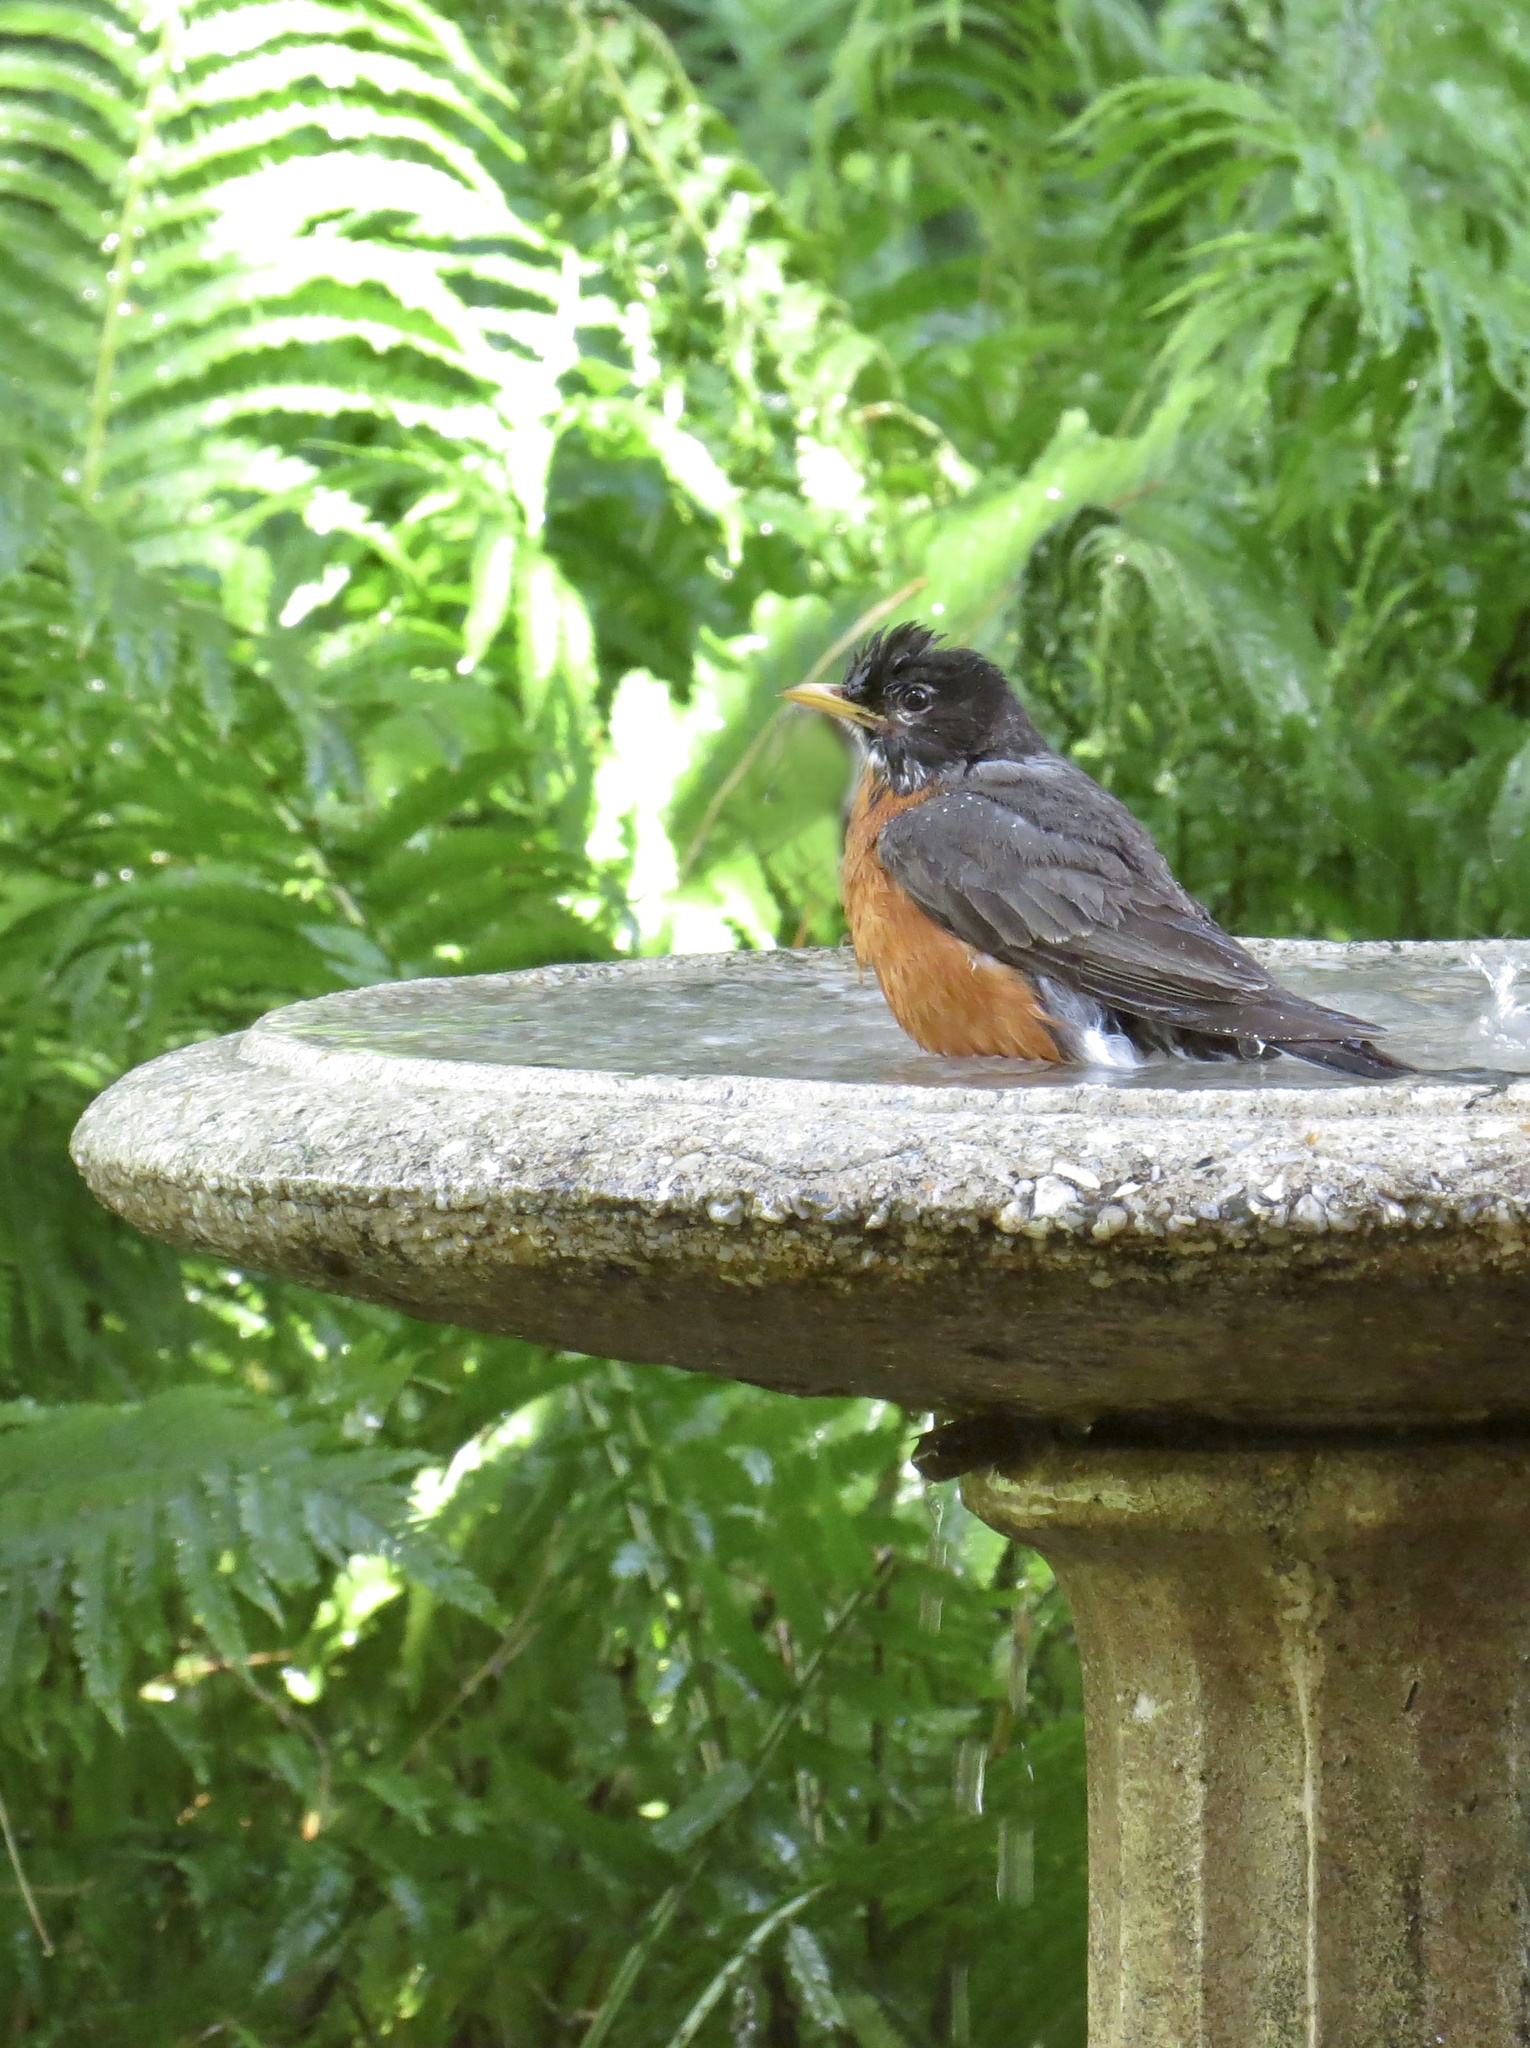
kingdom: Animalia
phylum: Chordata
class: Aves
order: Passeriformes
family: Turdidae
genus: Turdus
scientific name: Turdus migratorius
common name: American robin
